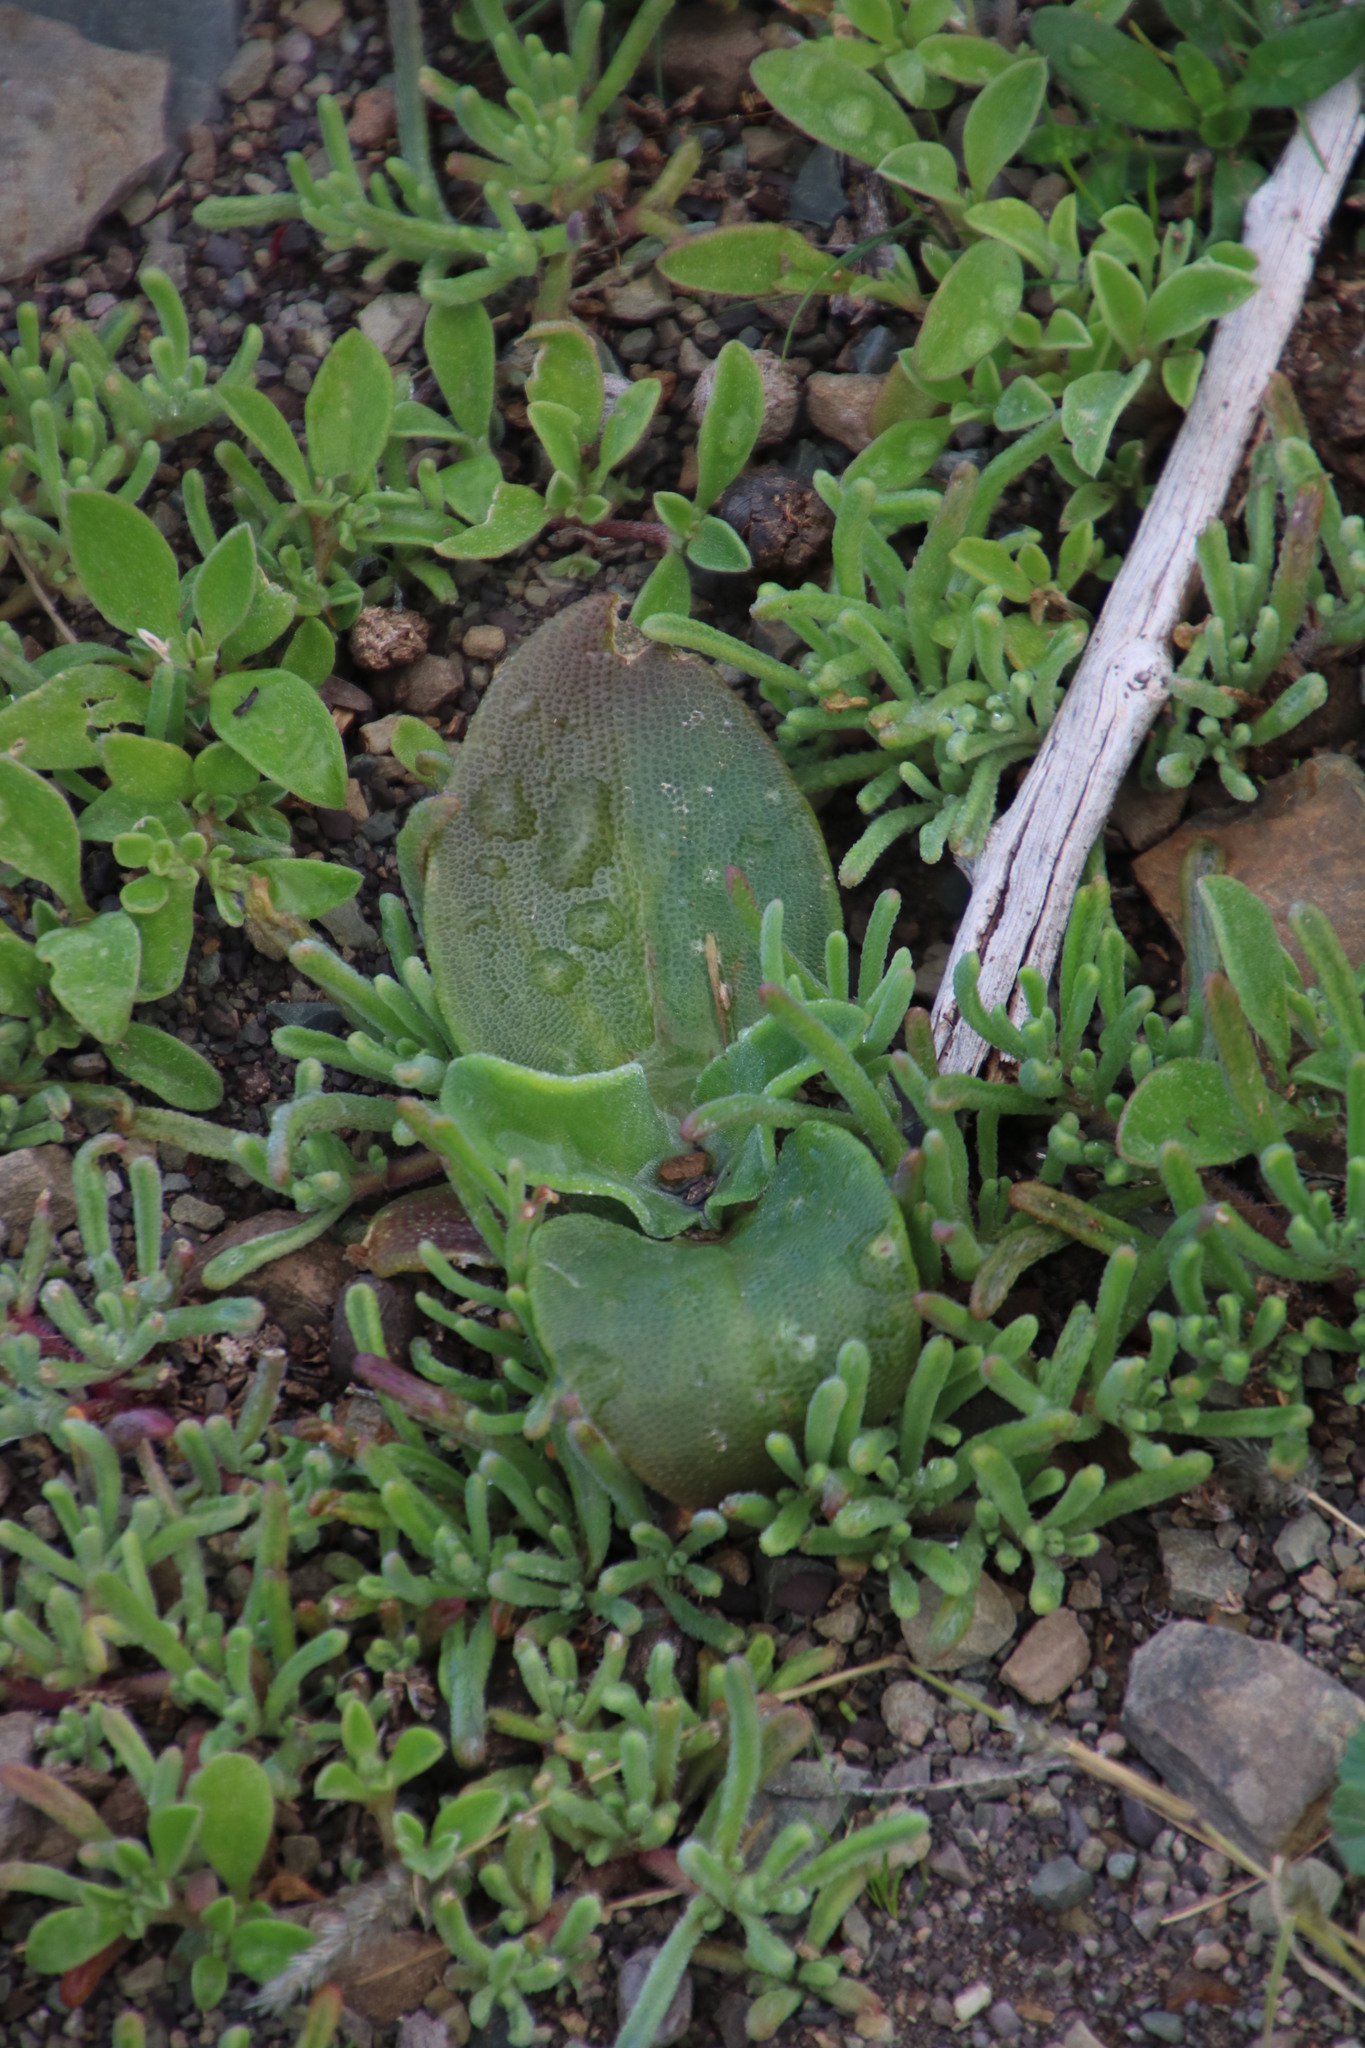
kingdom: Plantae
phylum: Tracheophyta
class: Magnoliopsida
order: Caryophyllales
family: Aizoaceae
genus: Mesembryanthemum
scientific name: Mesembryanthemum crystallinum
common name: Common iceplant
